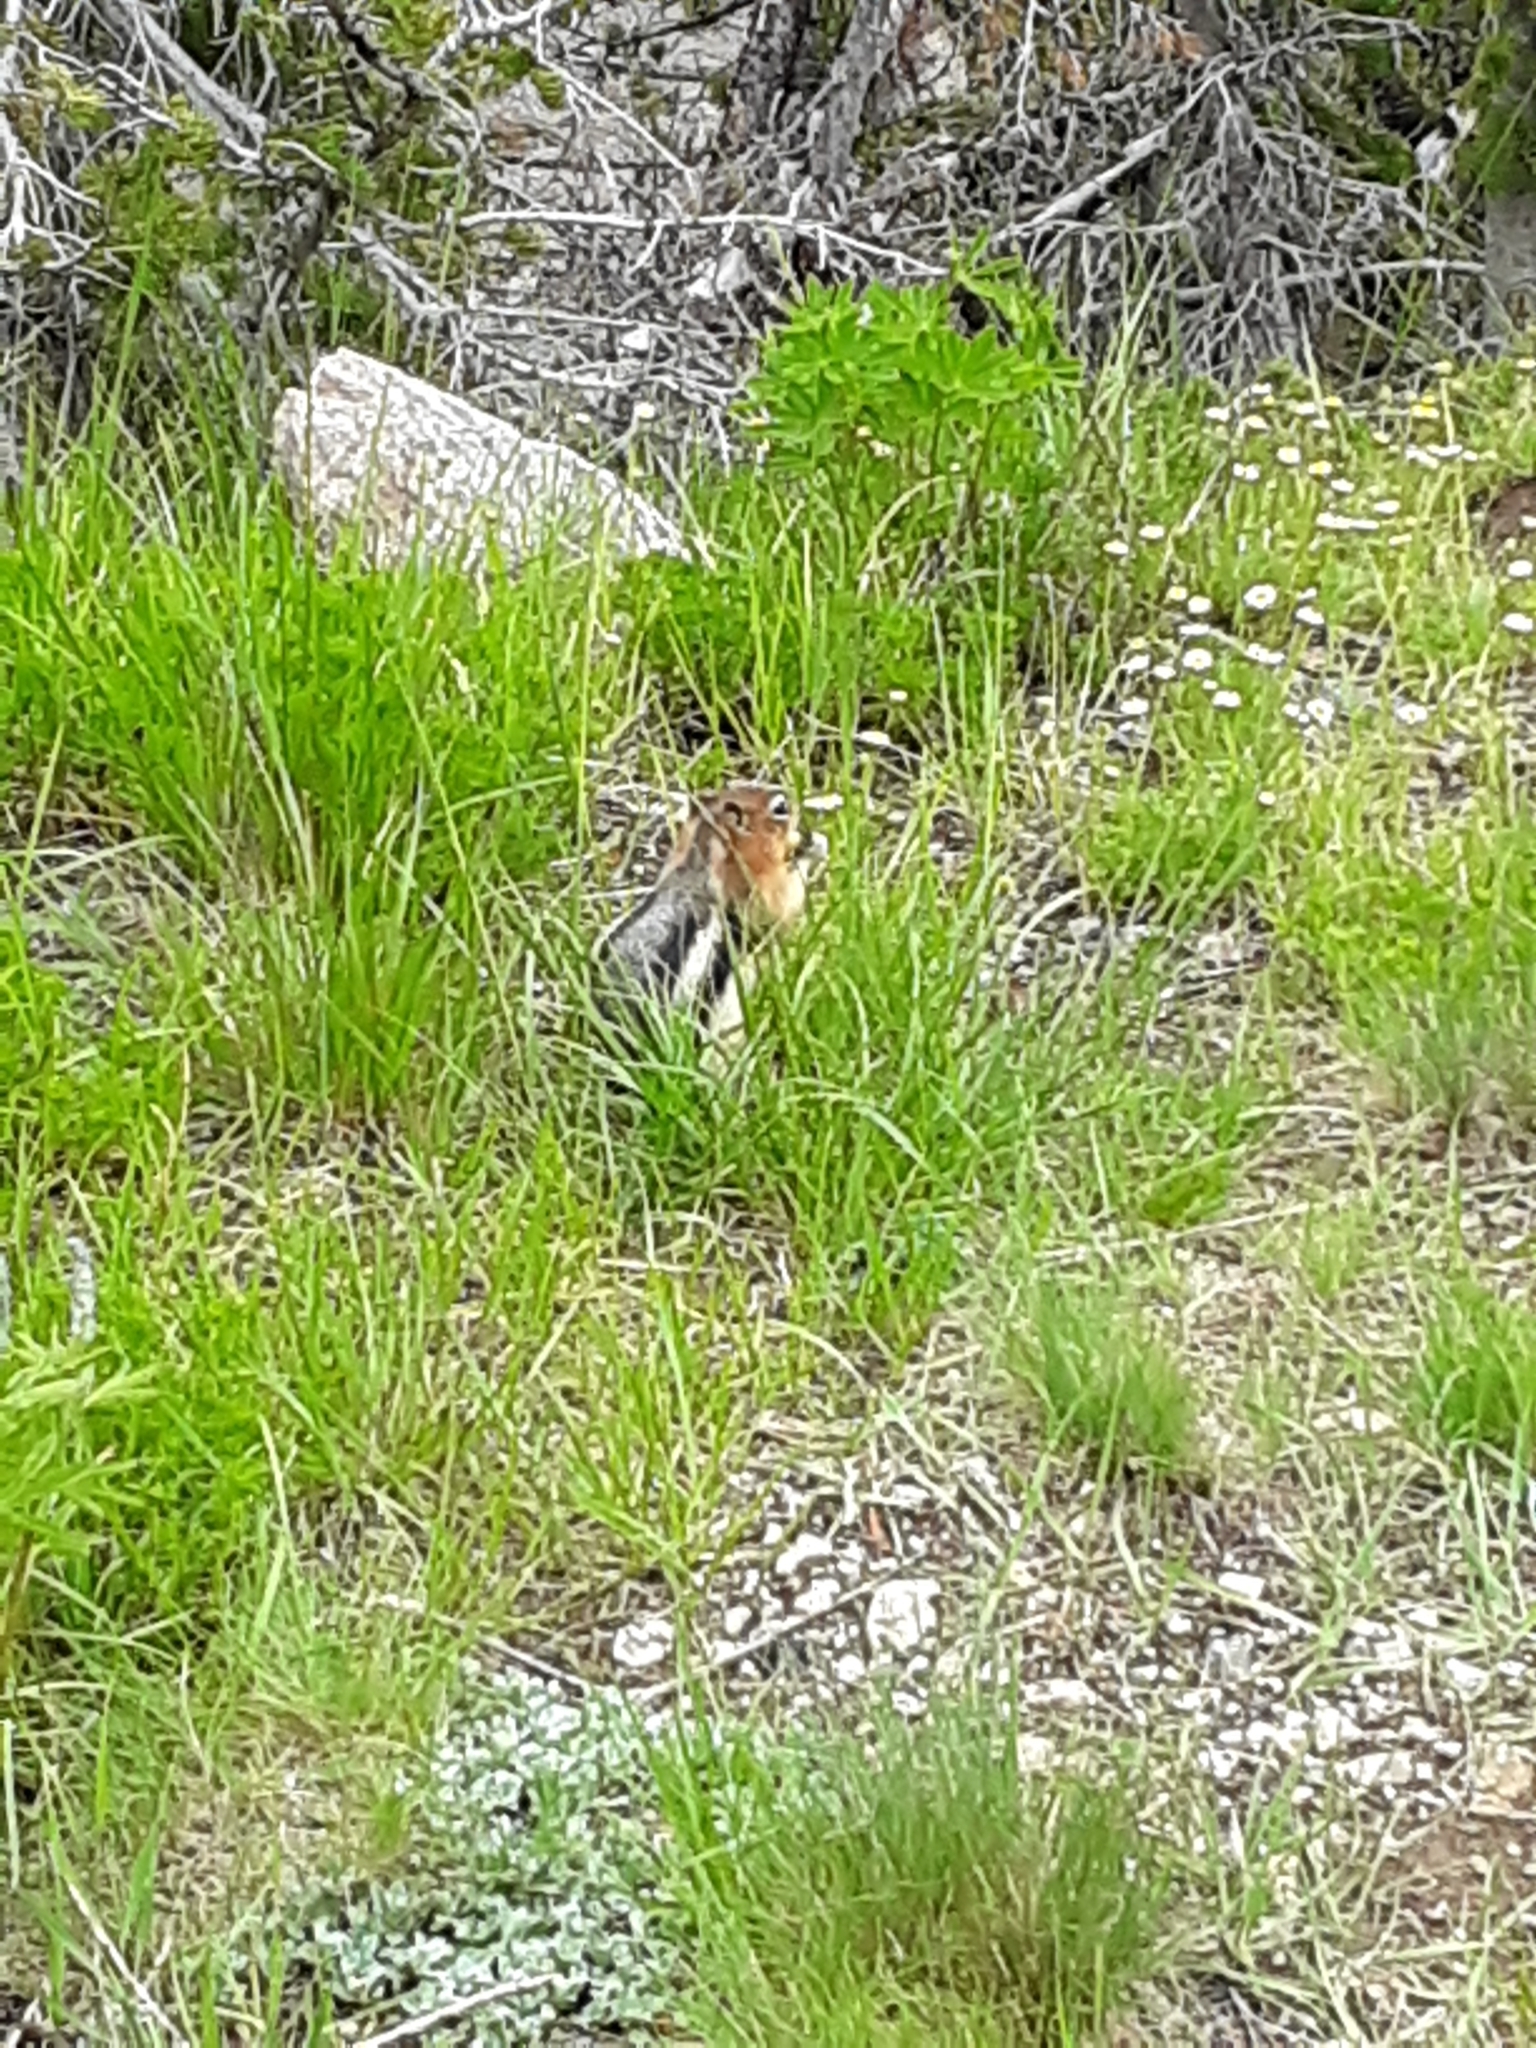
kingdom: Animalia
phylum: Chordata
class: Mammalia
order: Rodentia
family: Sciuridae
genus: Callospermophilus
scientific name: Callospermophilus lateralis
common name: Golden-mantled ground squirrel
